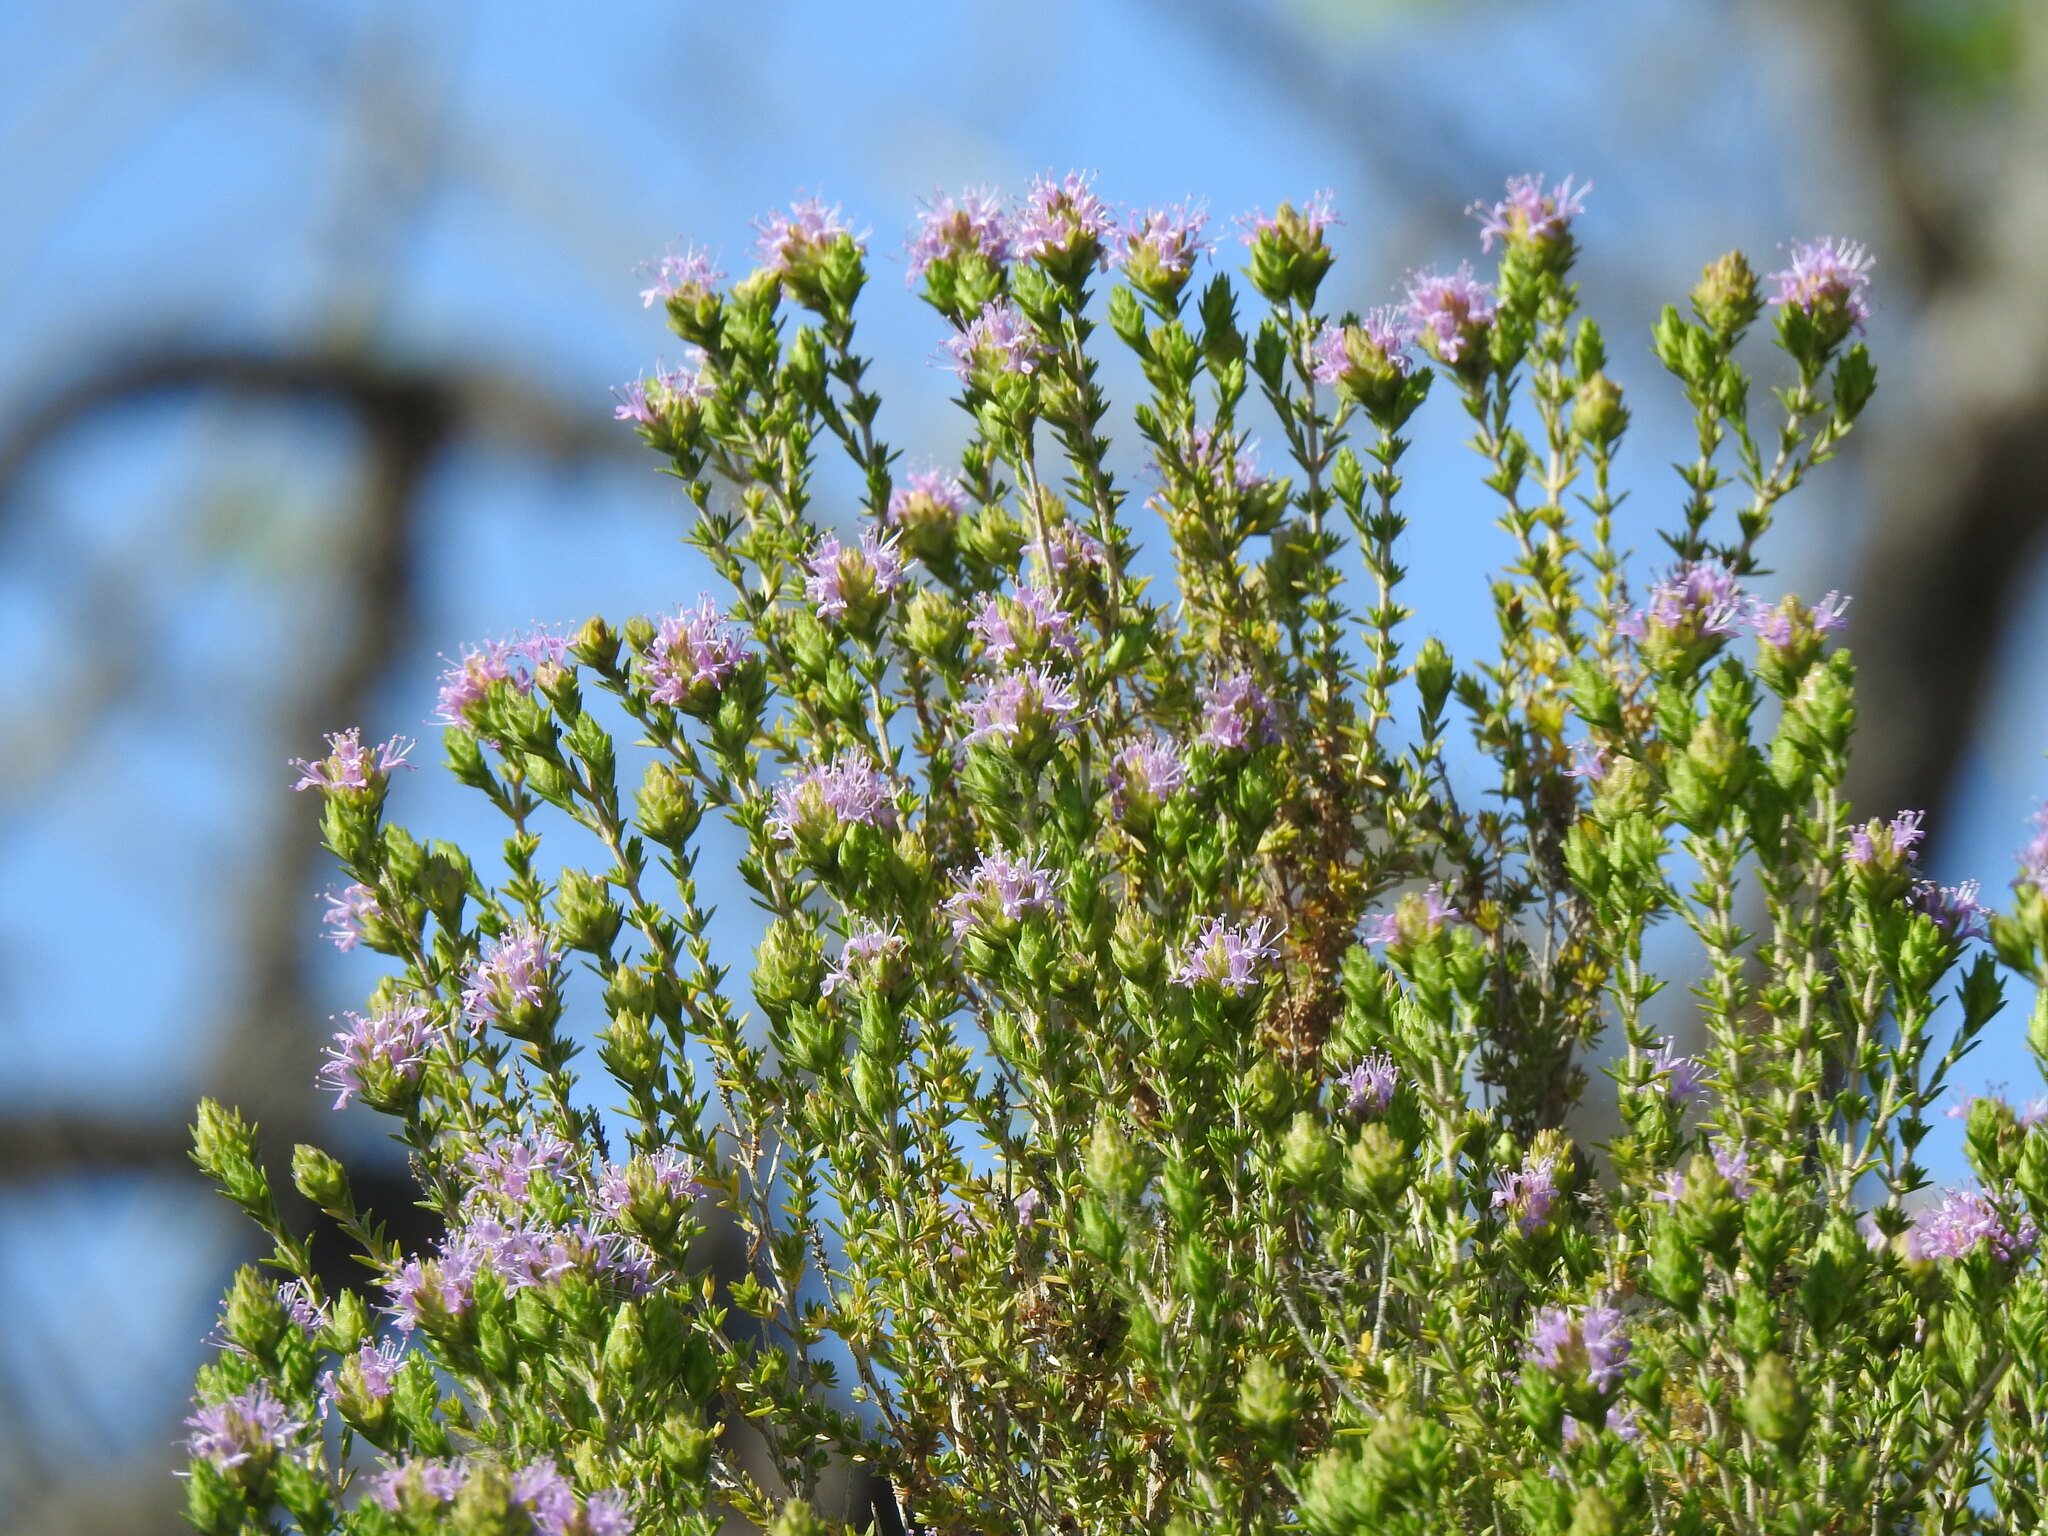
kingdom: Plantae
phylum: Tracheophyta
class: Magnoliopsida
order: Lamiales
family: Lamiaceae
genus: Thymbra
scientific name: Thymbra capitata
